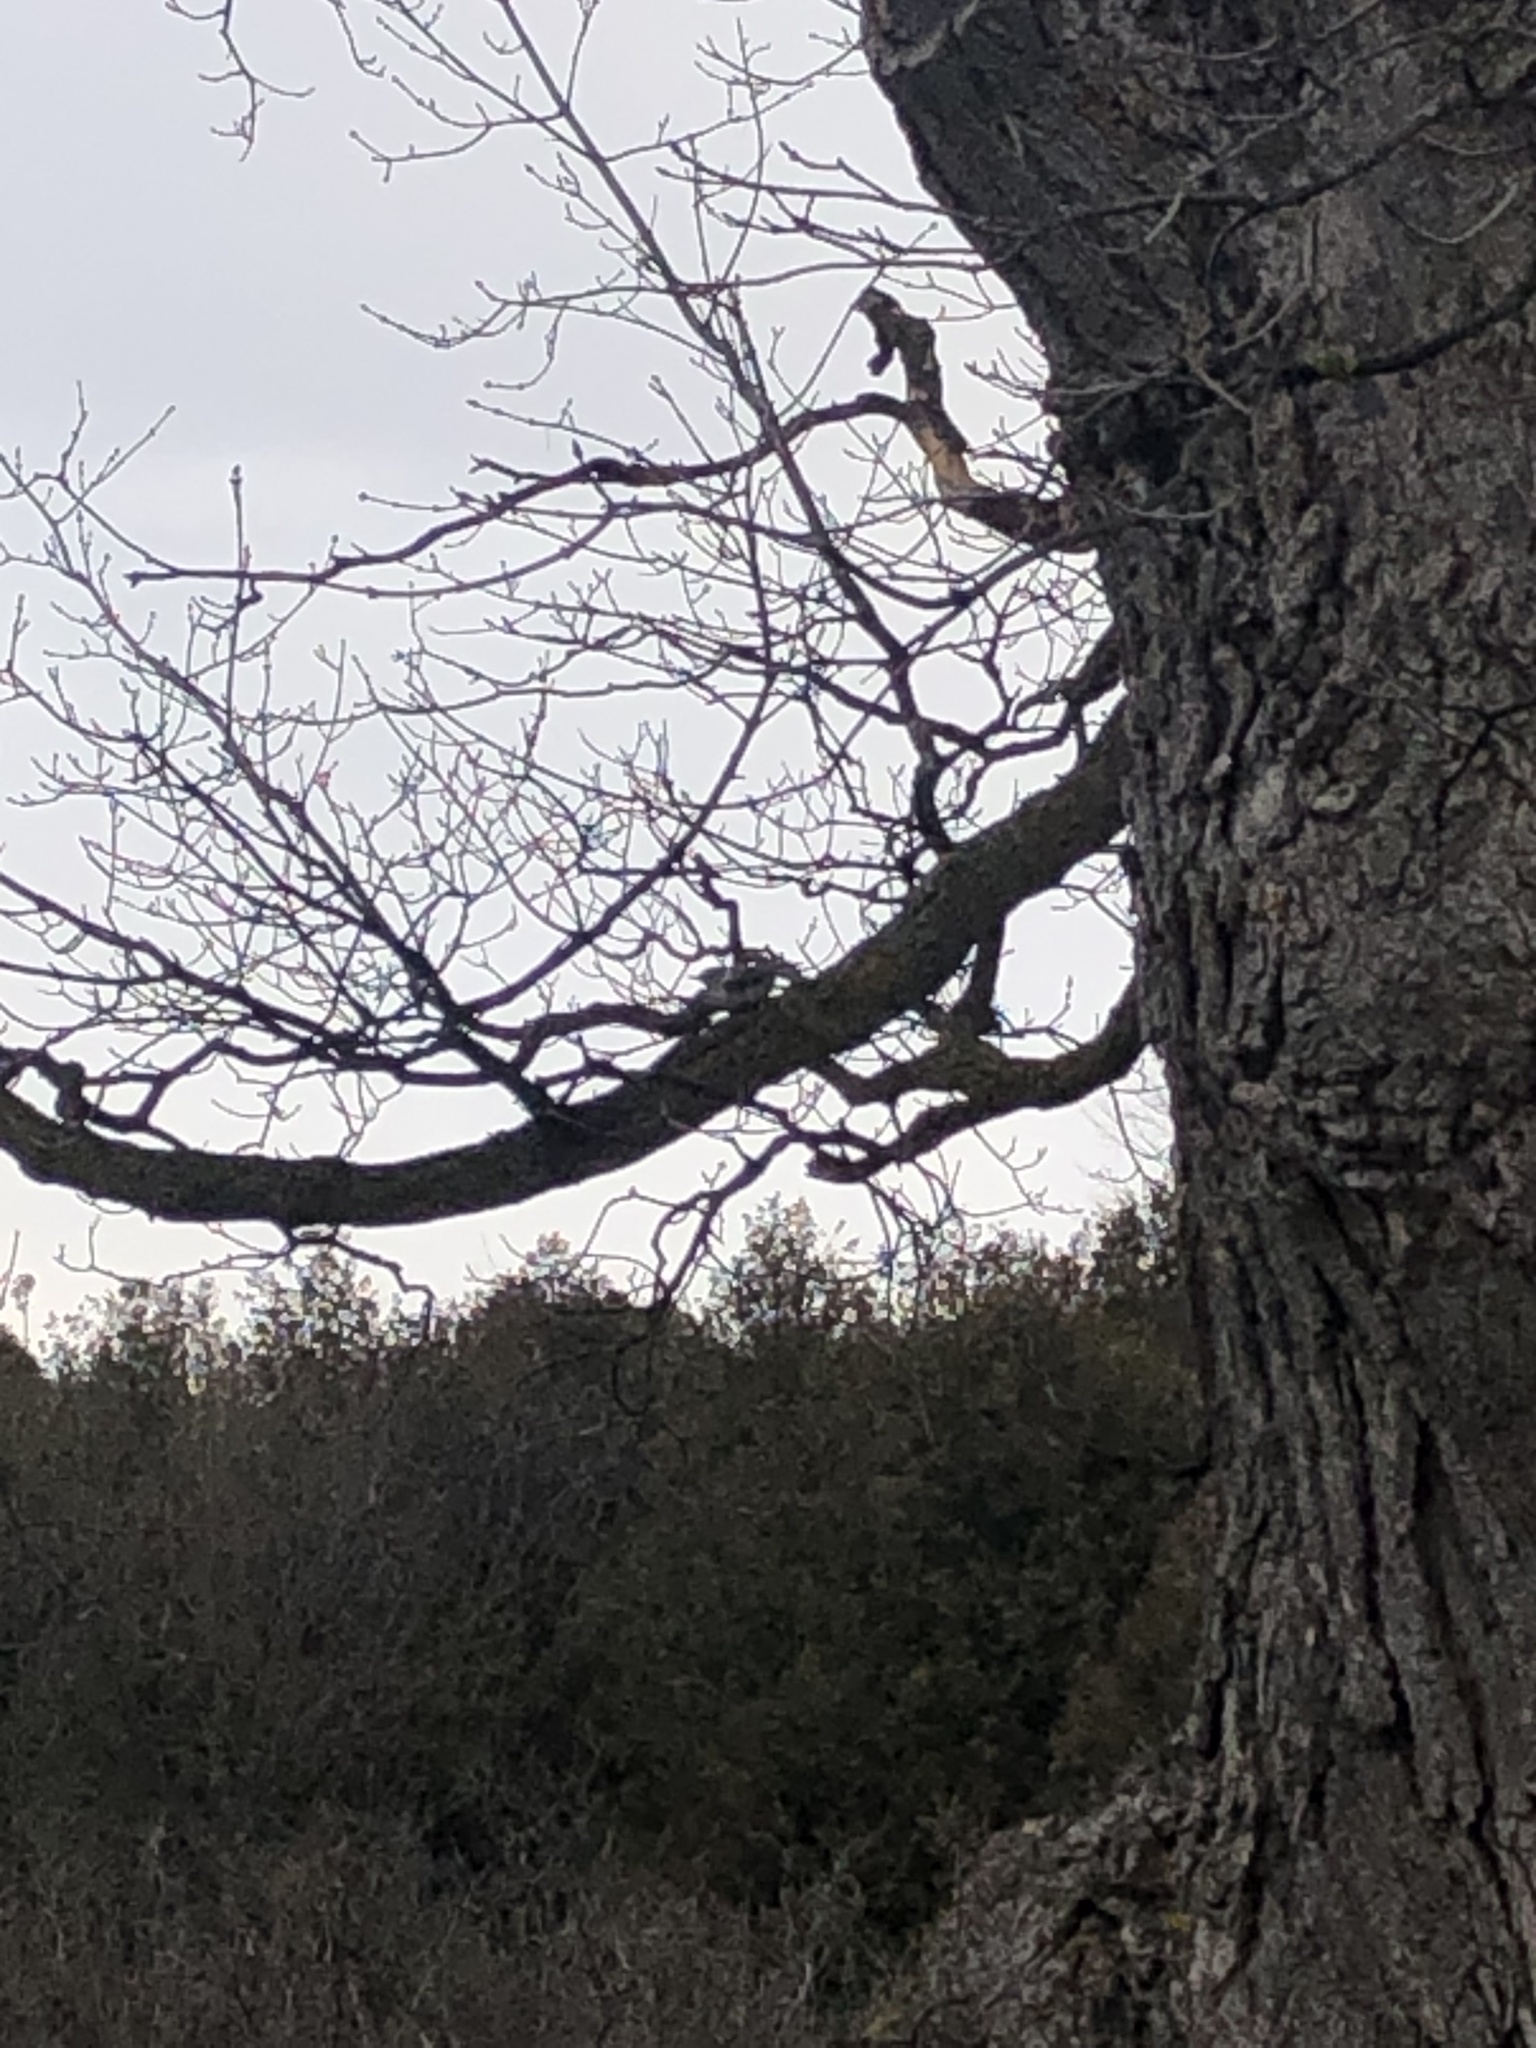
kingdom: Animalia
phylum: Chordata
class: Aves
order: Passeriformes
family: Sittidae
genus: Sitta
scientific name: Sitta carolinensis
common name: White-breasted nuthatch
